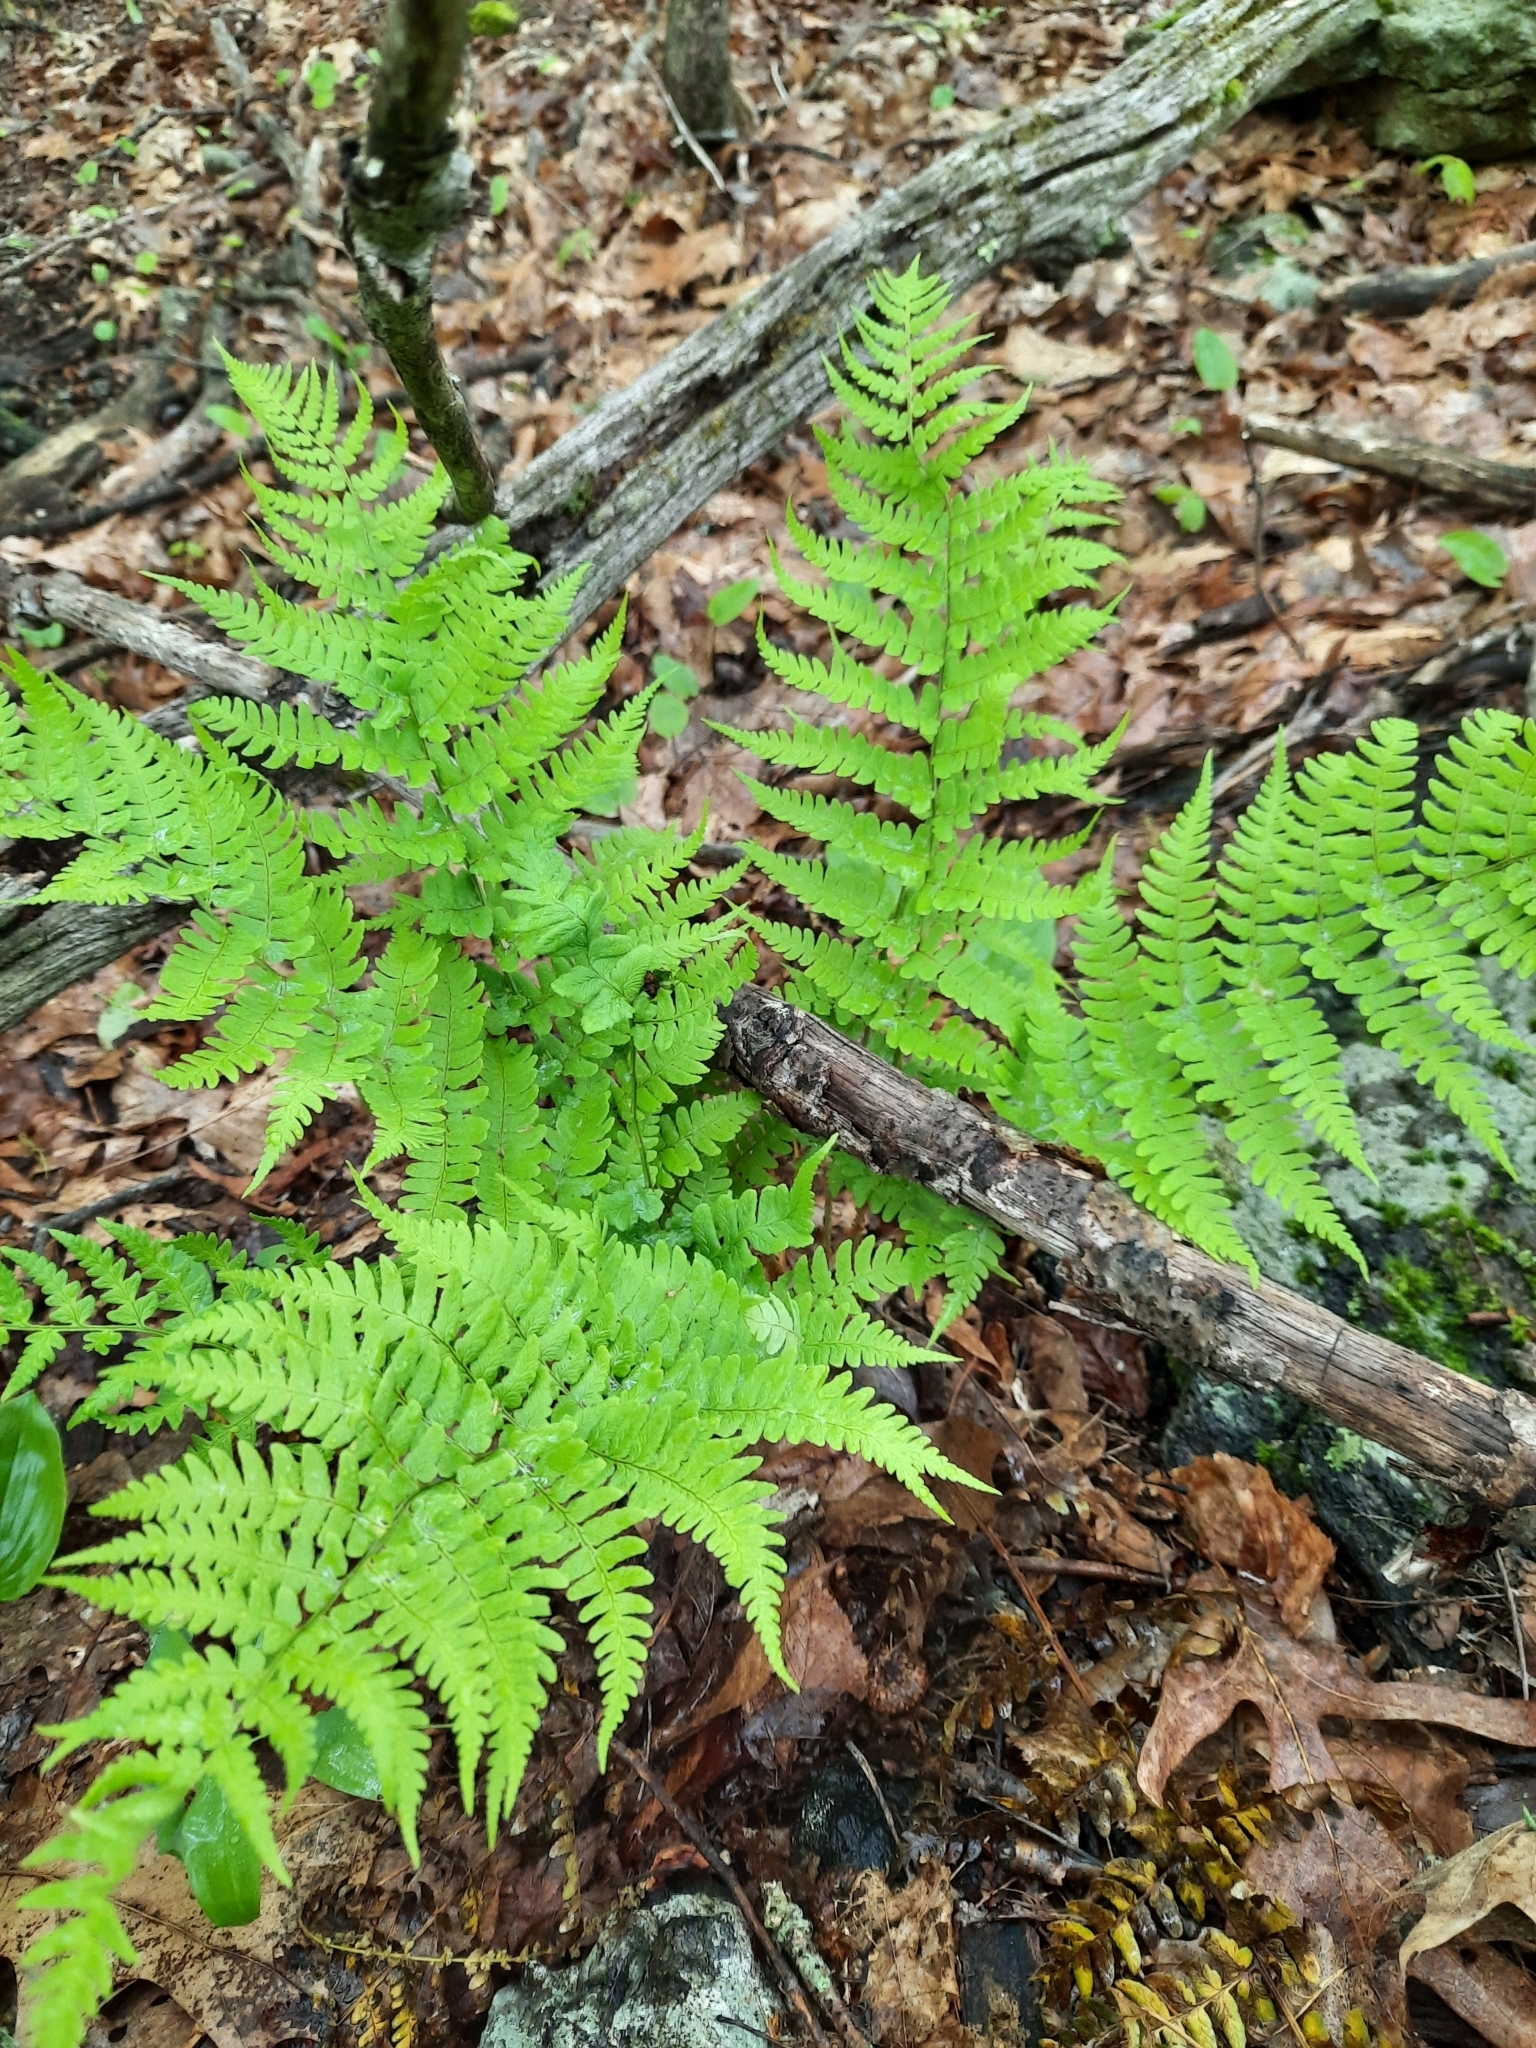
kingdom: Plantae
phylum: Tracheophyta
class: Polypodiopsida
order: Polypodiales
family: Dryopteridaceae
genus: Dryopteris
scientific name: Dryopteris marginalis
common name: Marginal wood fern
